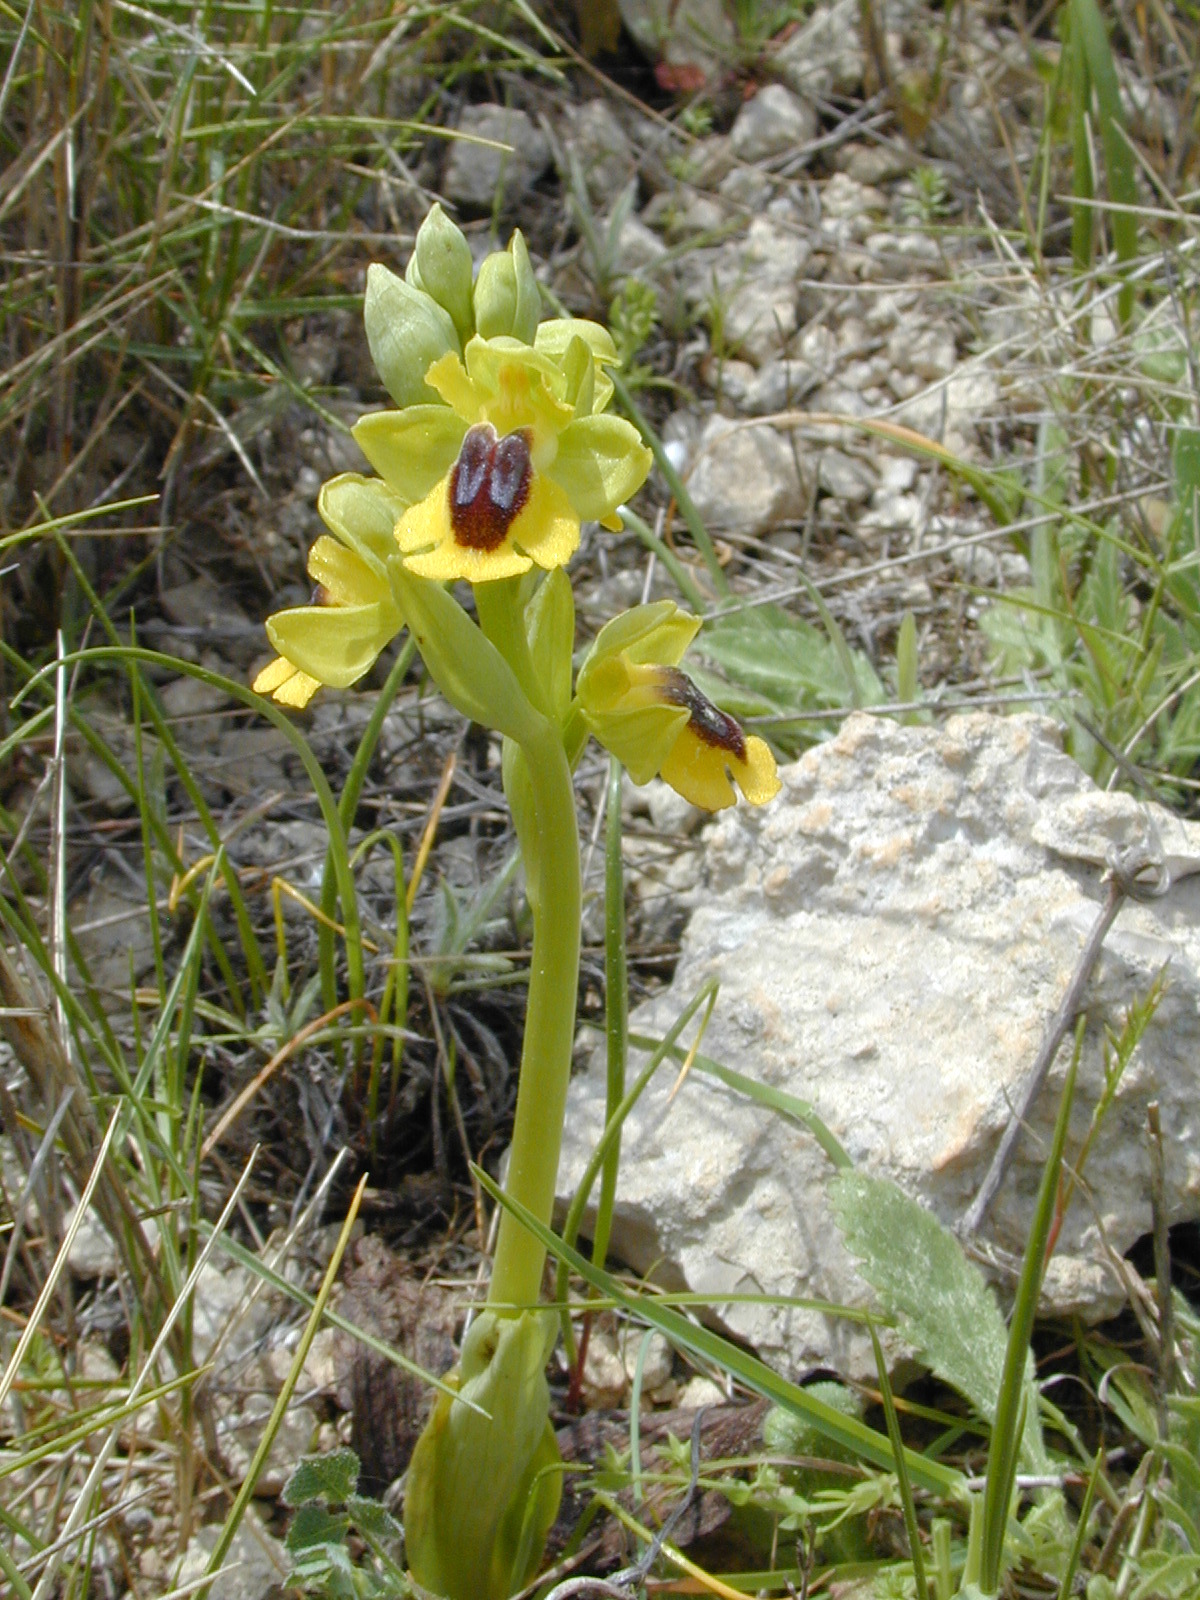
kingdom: Plantae
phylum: Tracheophyta
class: Liliopsida
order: Asparagales
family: Orchidaceae
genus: Ophrys
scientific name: Ophrys lutea
